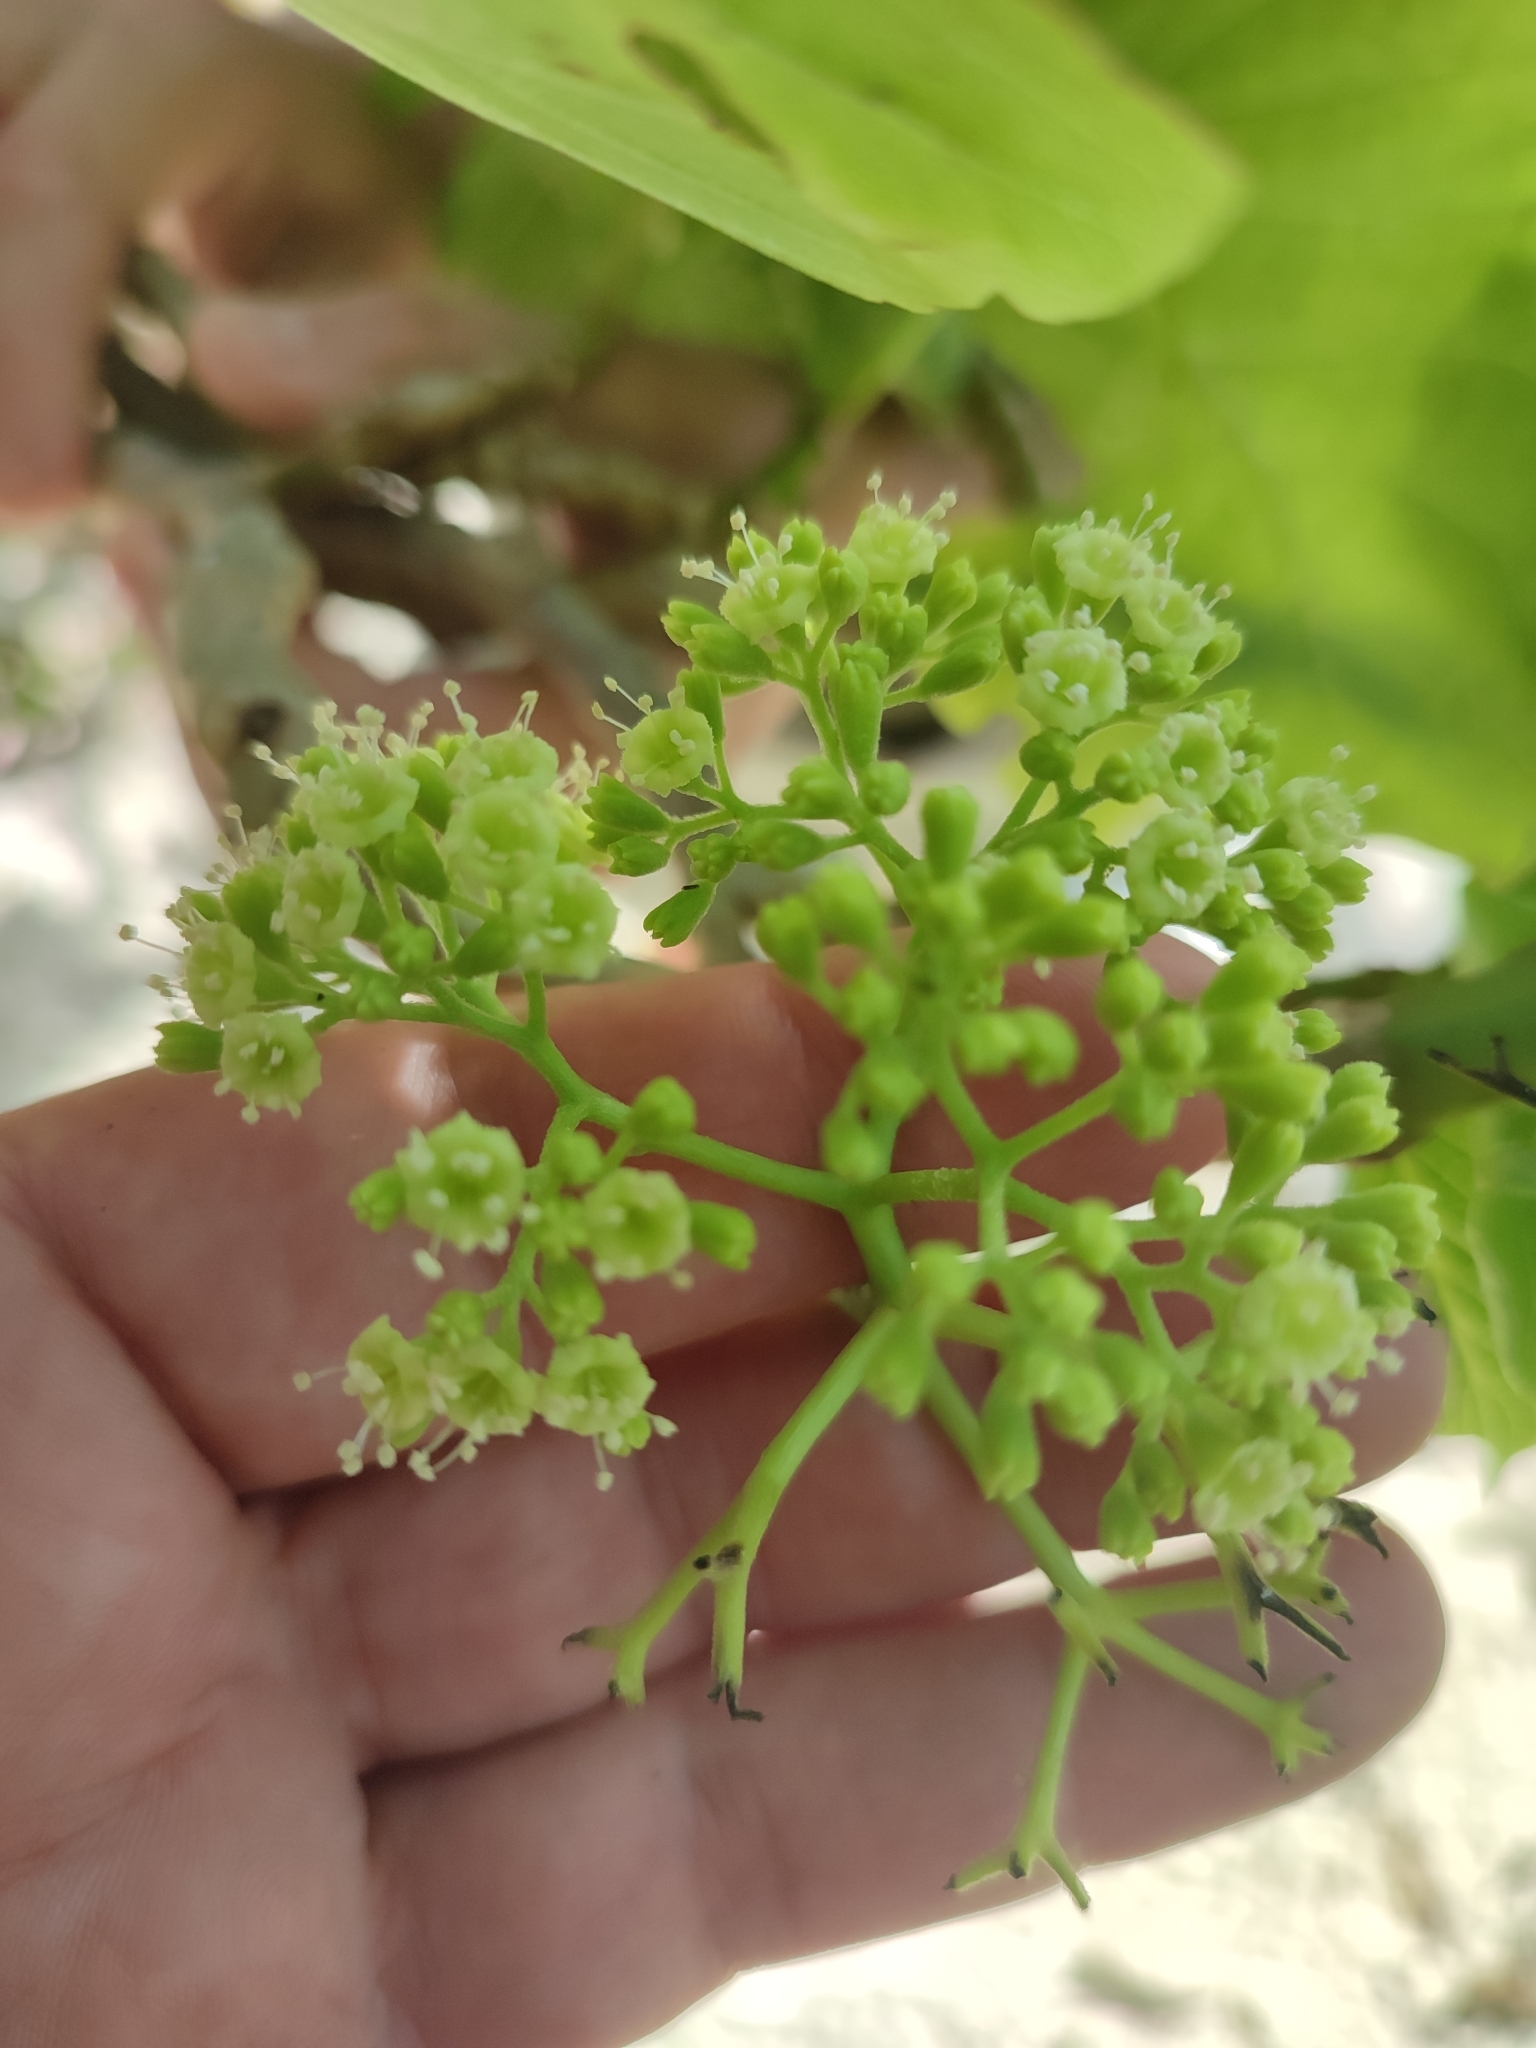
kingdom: Plantae
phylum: Tracheophyta
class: Magnoliopsida
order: Caryophyllales
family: Nyctaginaceae
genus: Ceodes
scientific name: Ceodes
